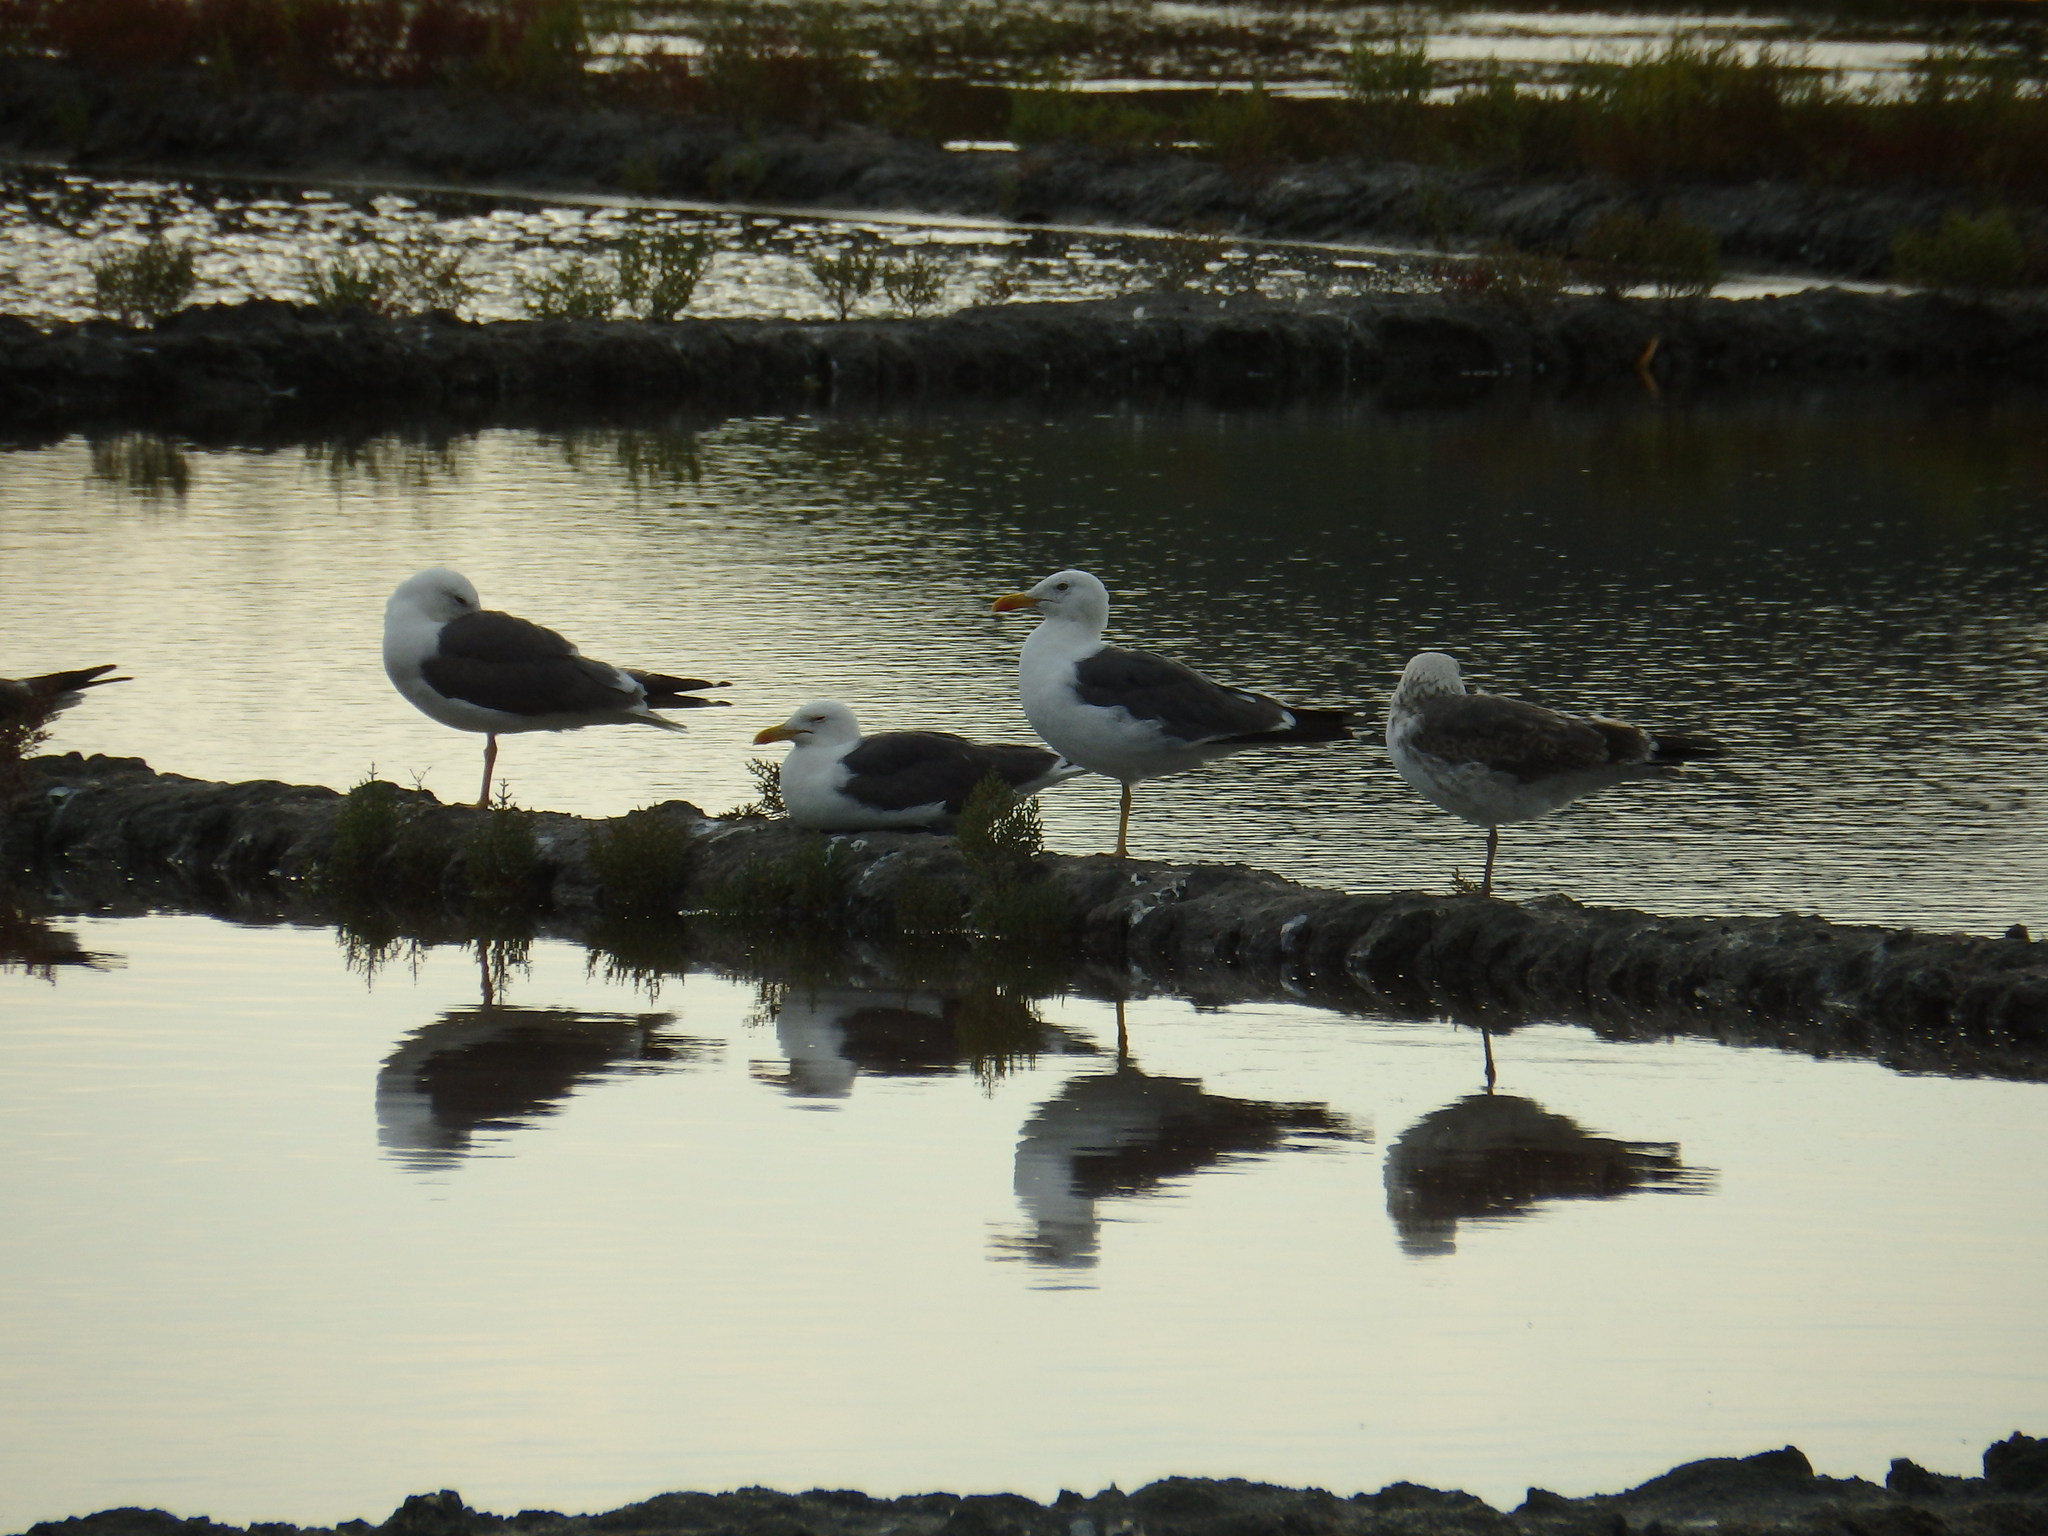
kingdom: Animalia
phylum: Chordata
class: Aves
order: Charadriiformes
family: Laridae
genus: Larus
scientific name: Larus fuscus
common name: Lesser black-backed gull
